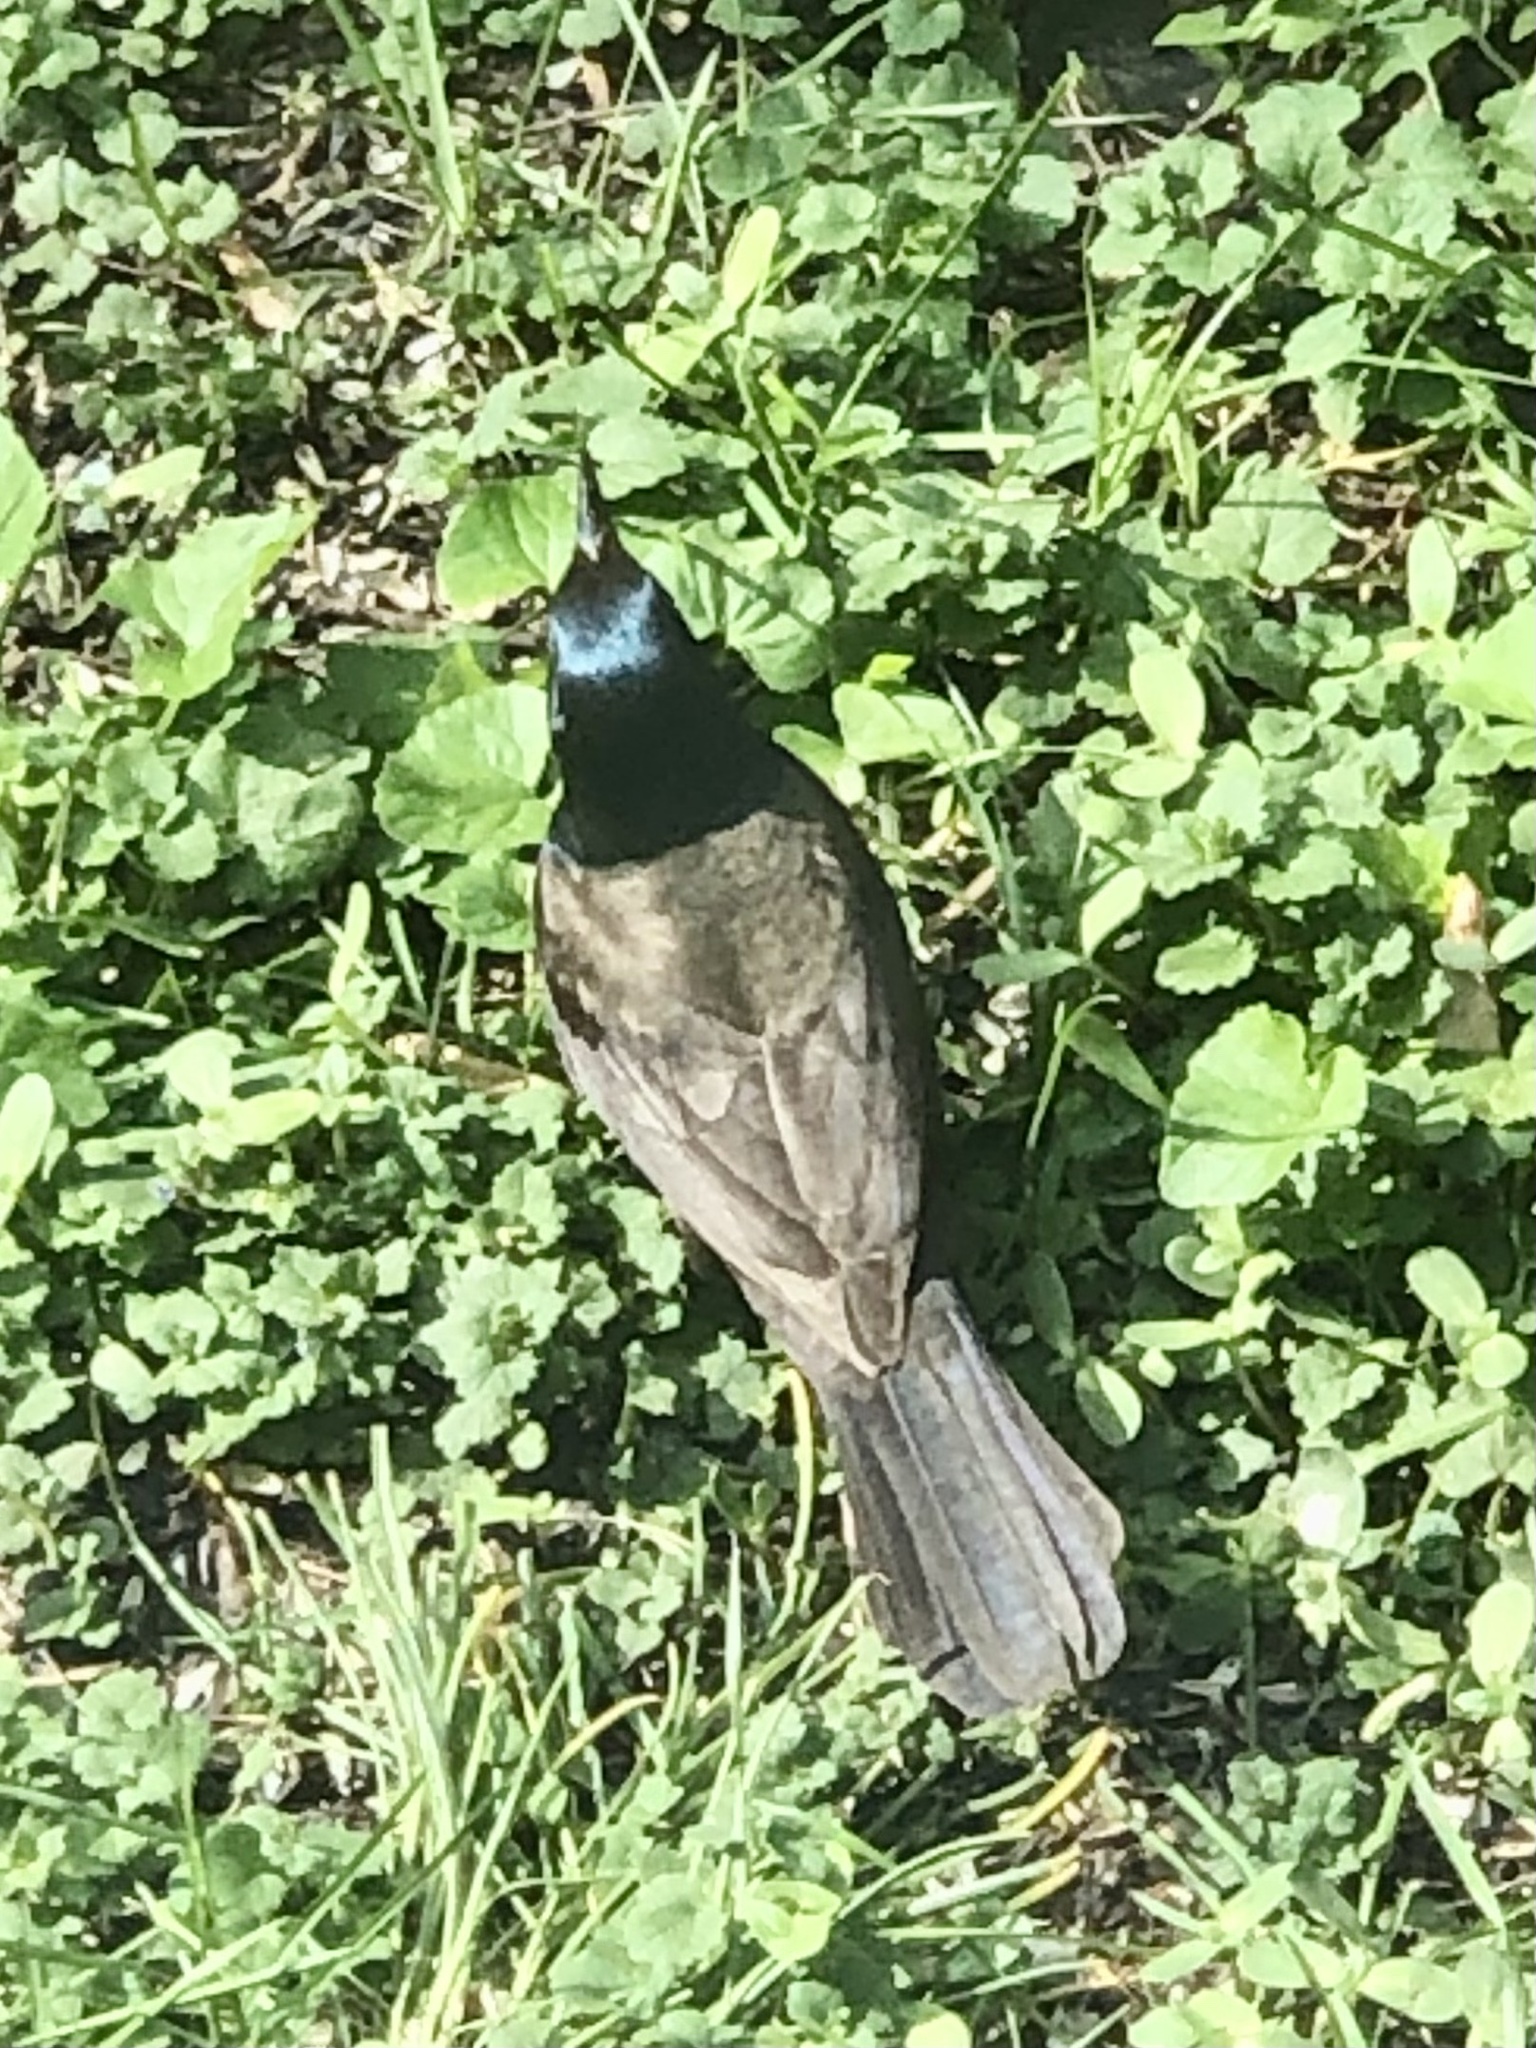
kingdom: Animalia
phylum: Chordata
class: Aves
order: Passeriformes
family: Icteridae
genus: Quiscalus
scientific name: Quiscalus quiscula
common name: Common grackle
